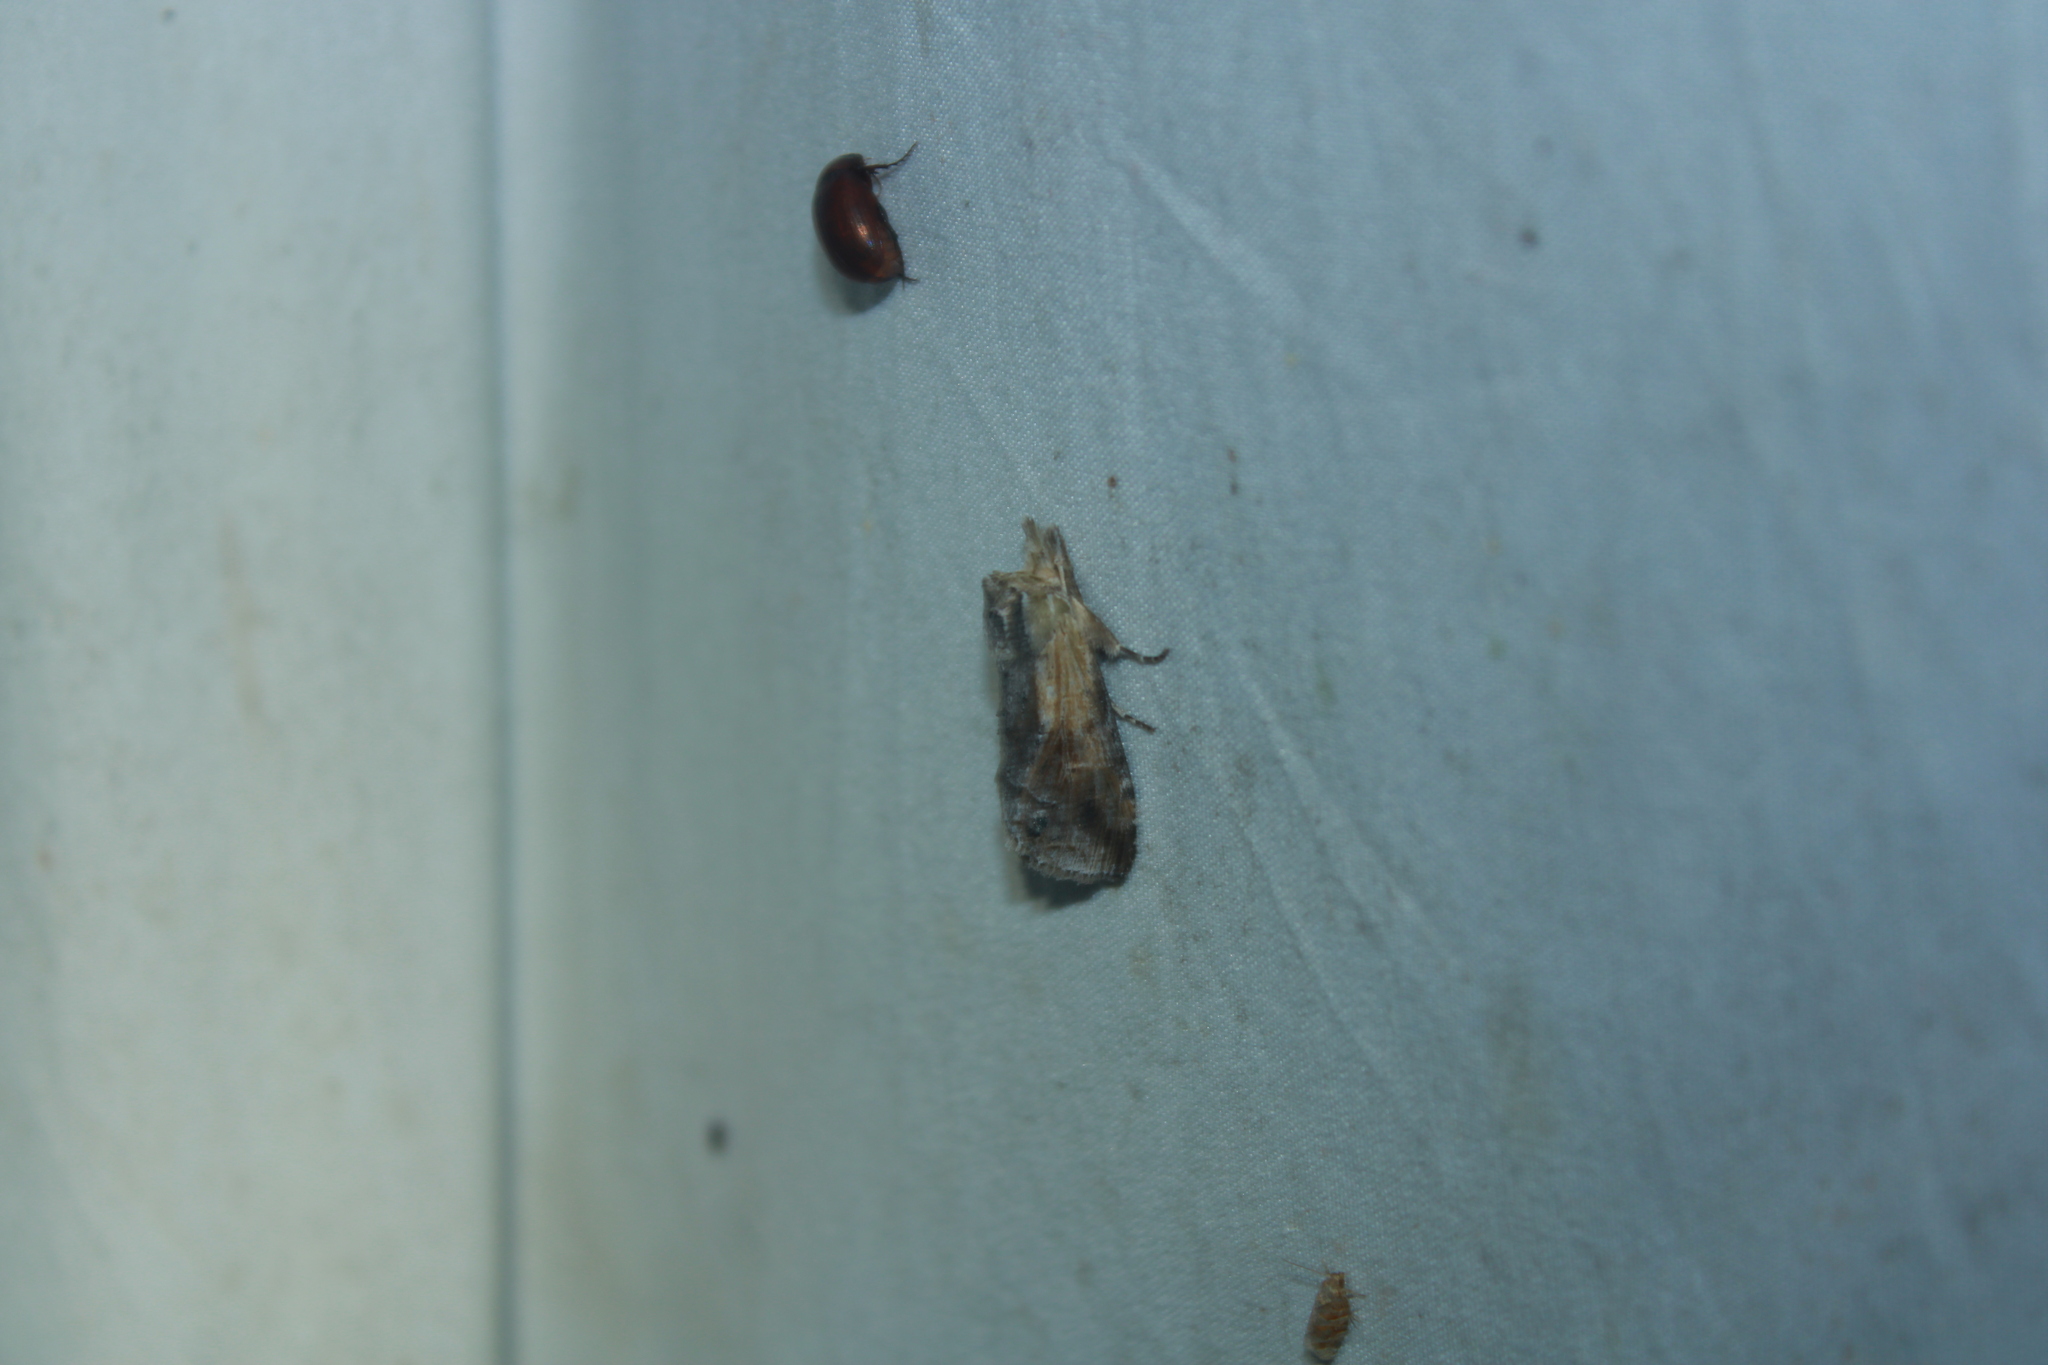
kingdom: Animalia
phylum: Arthropoda
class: Insecta
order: Lepidoptera
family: Notodontidae
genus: Dasylophia
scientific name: Dasylophia anguina
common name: Black-spotted prominent
